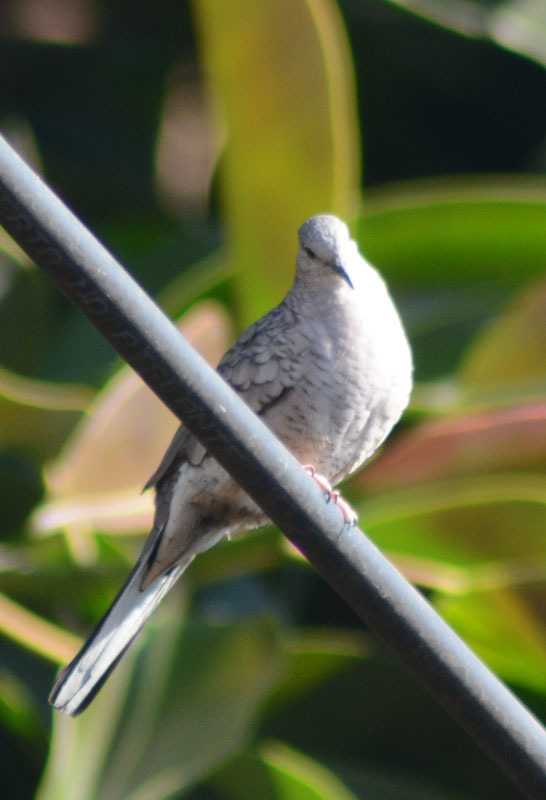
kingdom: Animalia
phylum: Chordata
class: Aves
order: Columbiformes
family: Columbidae
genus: Columbina
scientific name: Columbina inca
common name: Inca dove
